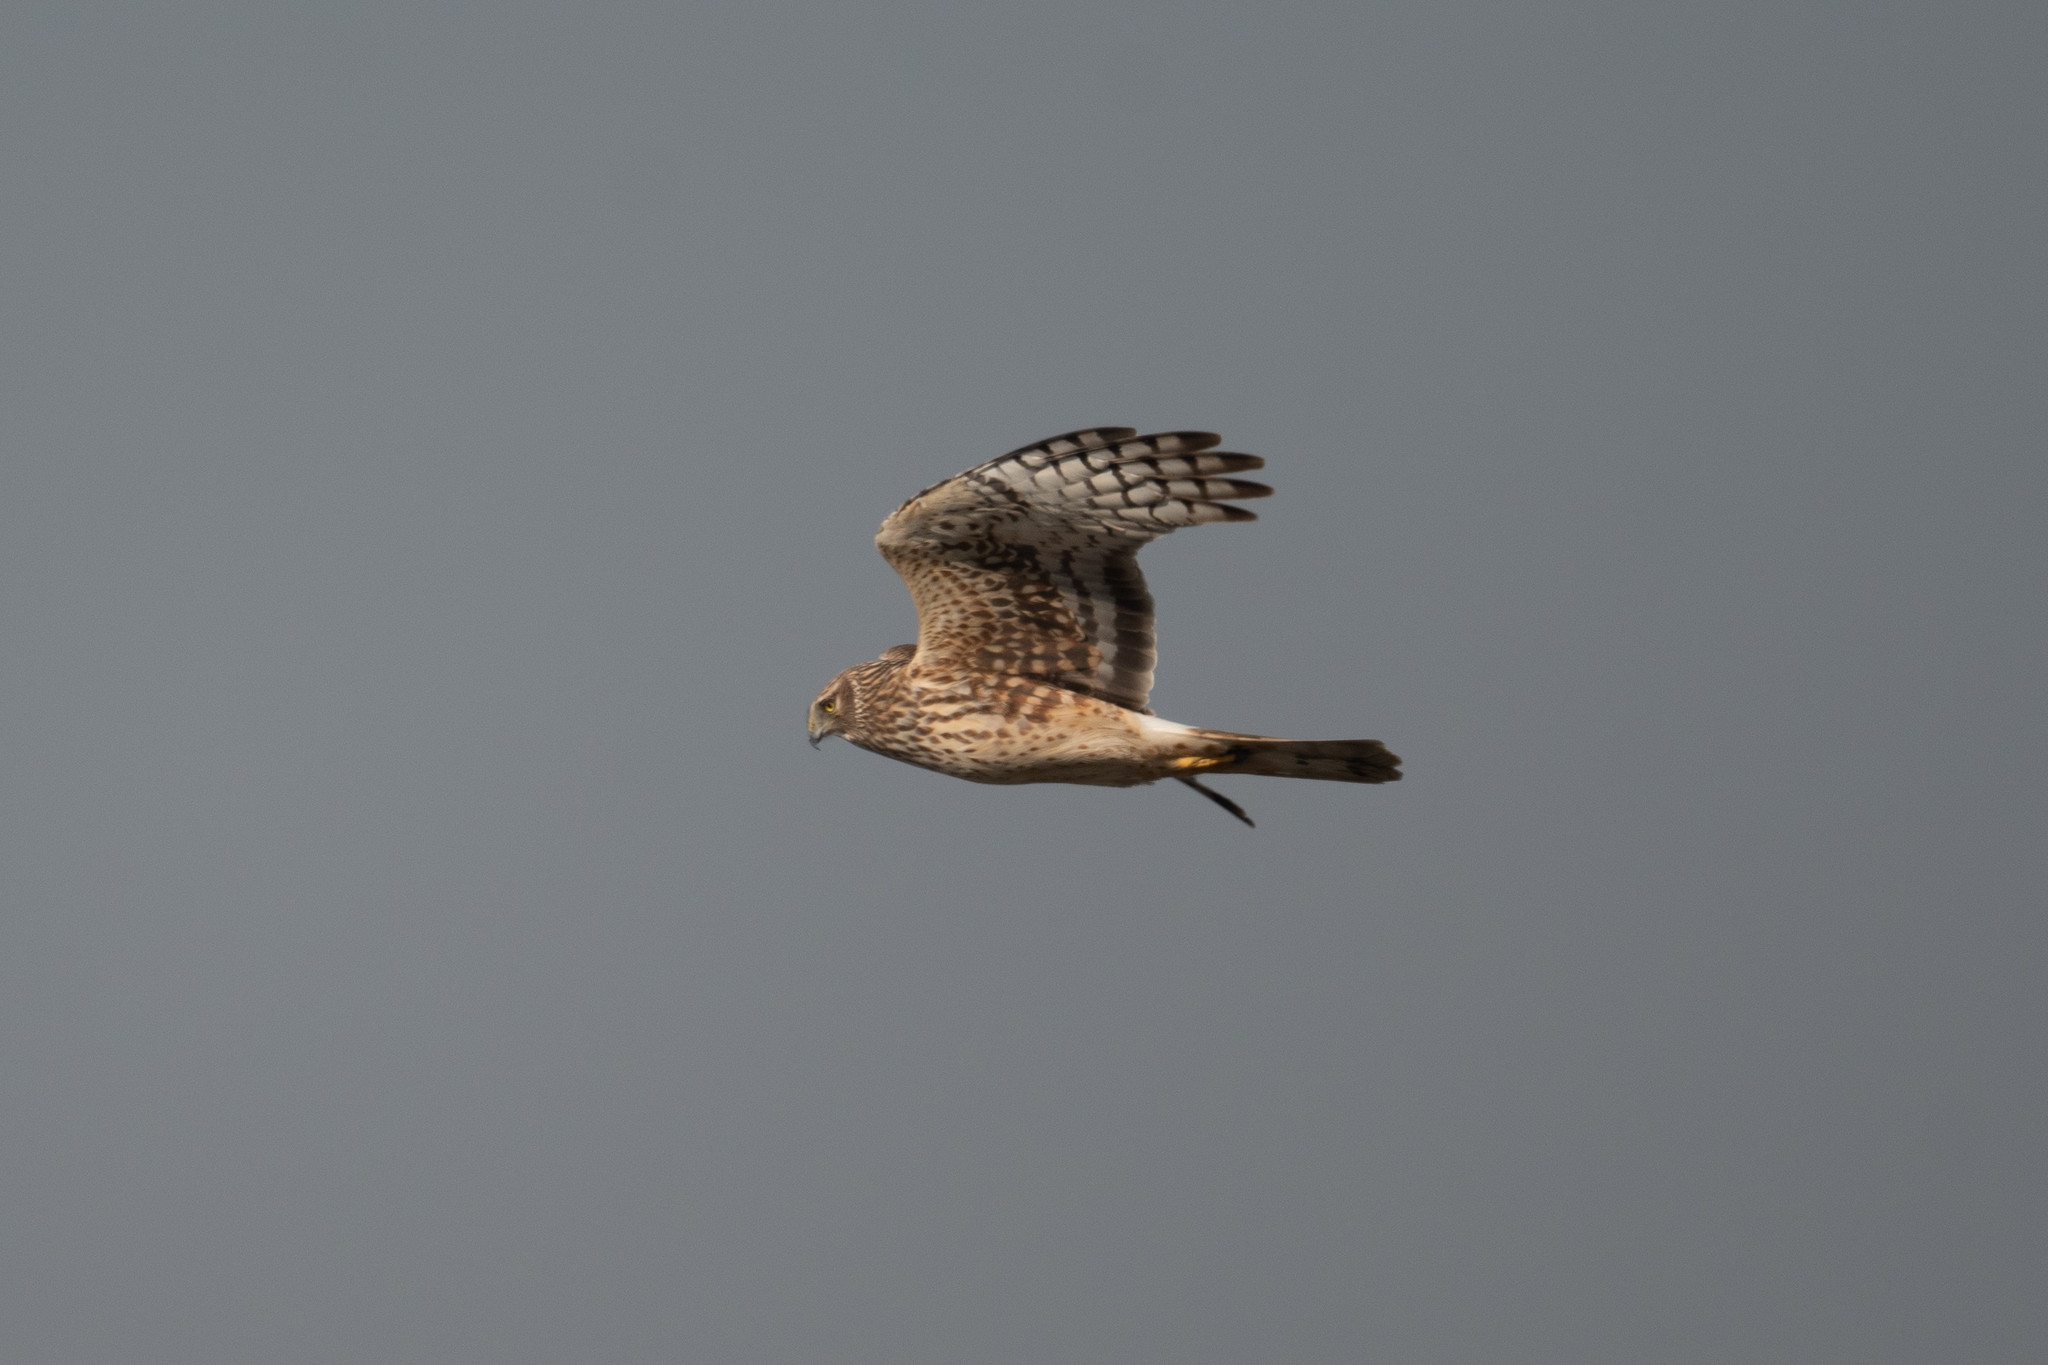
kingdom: Animalia
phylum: Chordata
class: Aves
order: Accipitriformes
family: Accipitridae
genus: Circus
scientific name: Circus cyaneus
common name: Hen harrier
